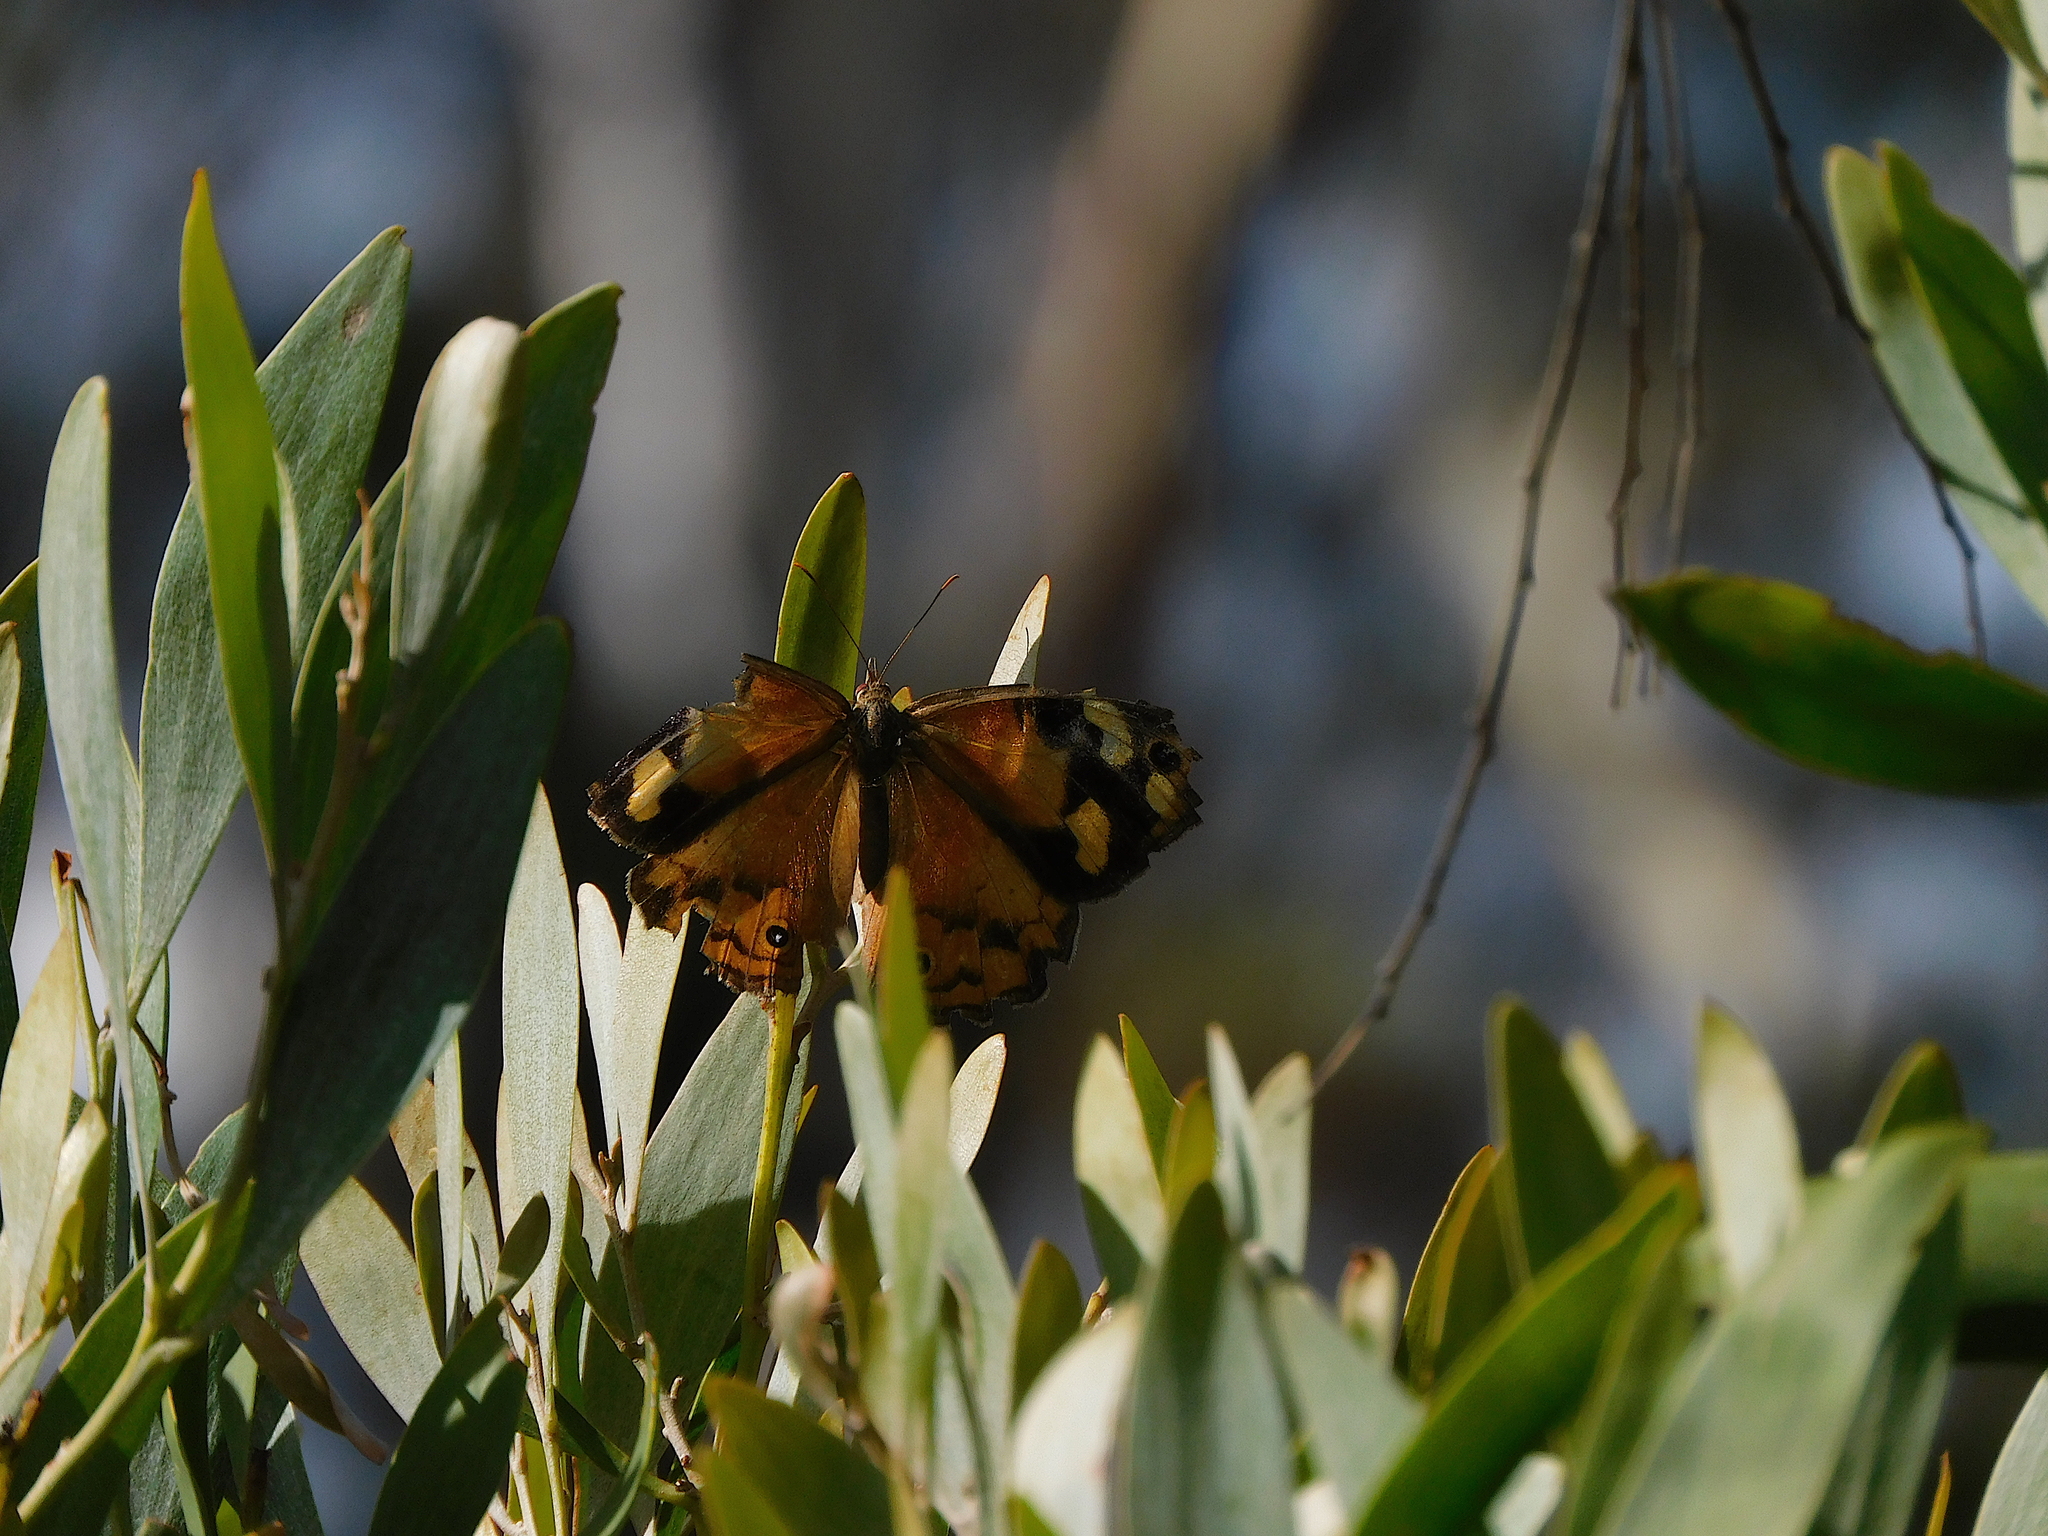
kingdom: Animalia
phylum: Arthropoda
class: Insecta
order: Lepidoptera
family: Nymphalidae
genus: Heteronympha
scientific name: Heteronympha merope
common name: Common brown
